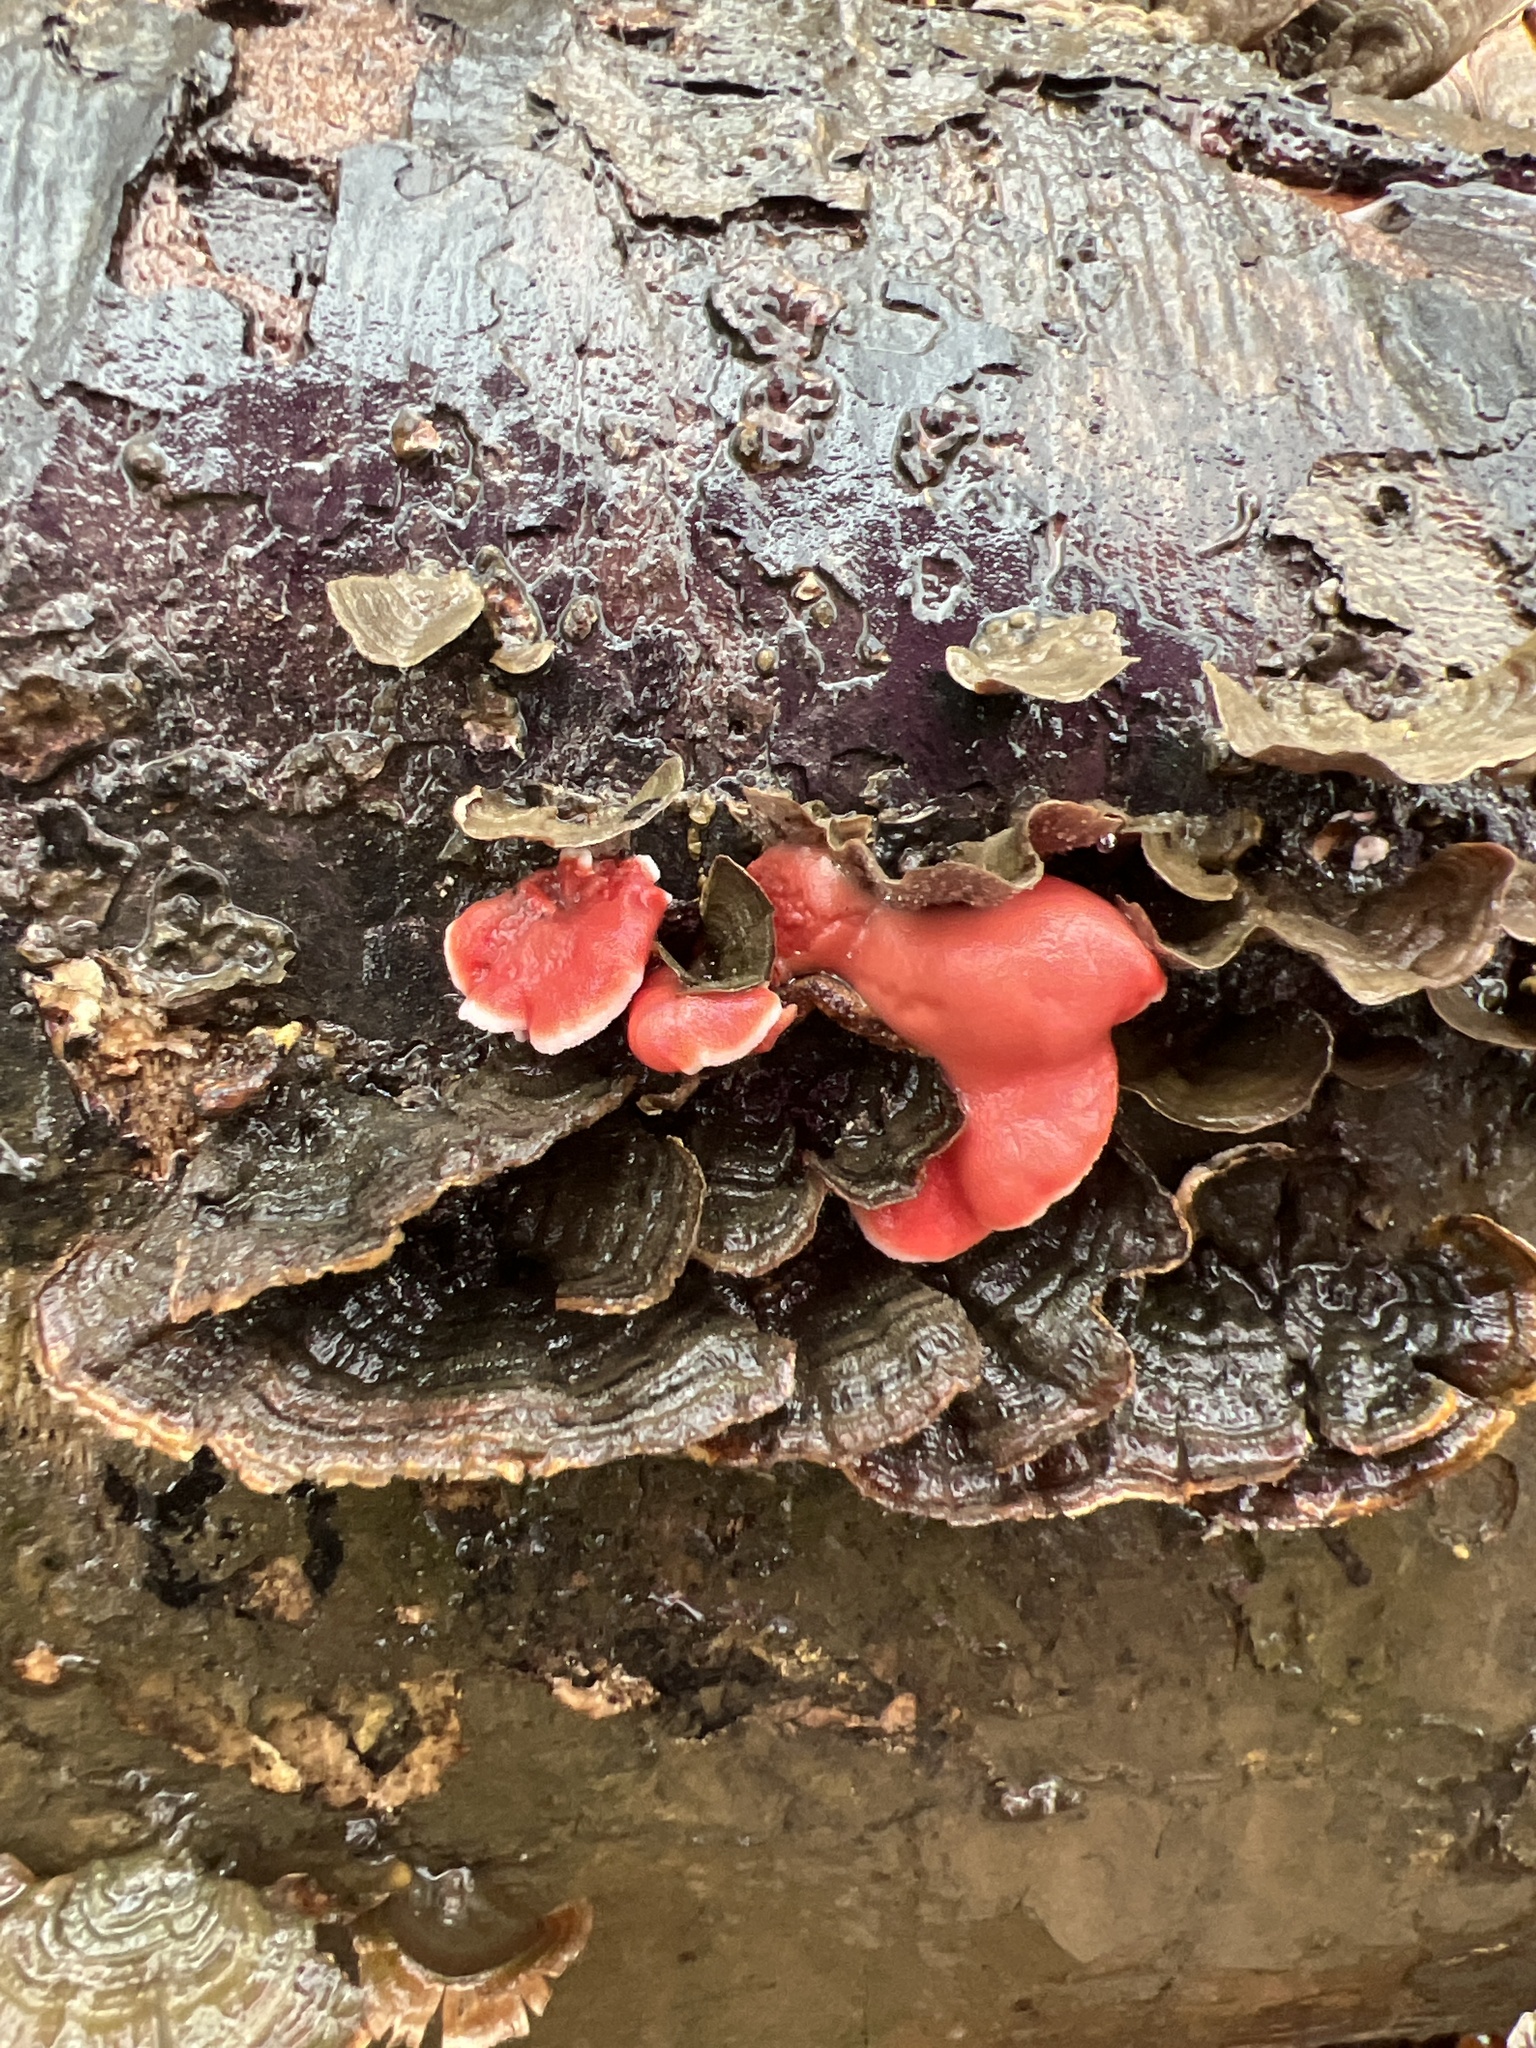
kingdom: Fungi
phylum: Basidiomycota
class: Agaricomycetes
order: Polyporales
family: Irpicaceae
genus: Byssomerulius
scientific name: Byssomerulius incarnatus
